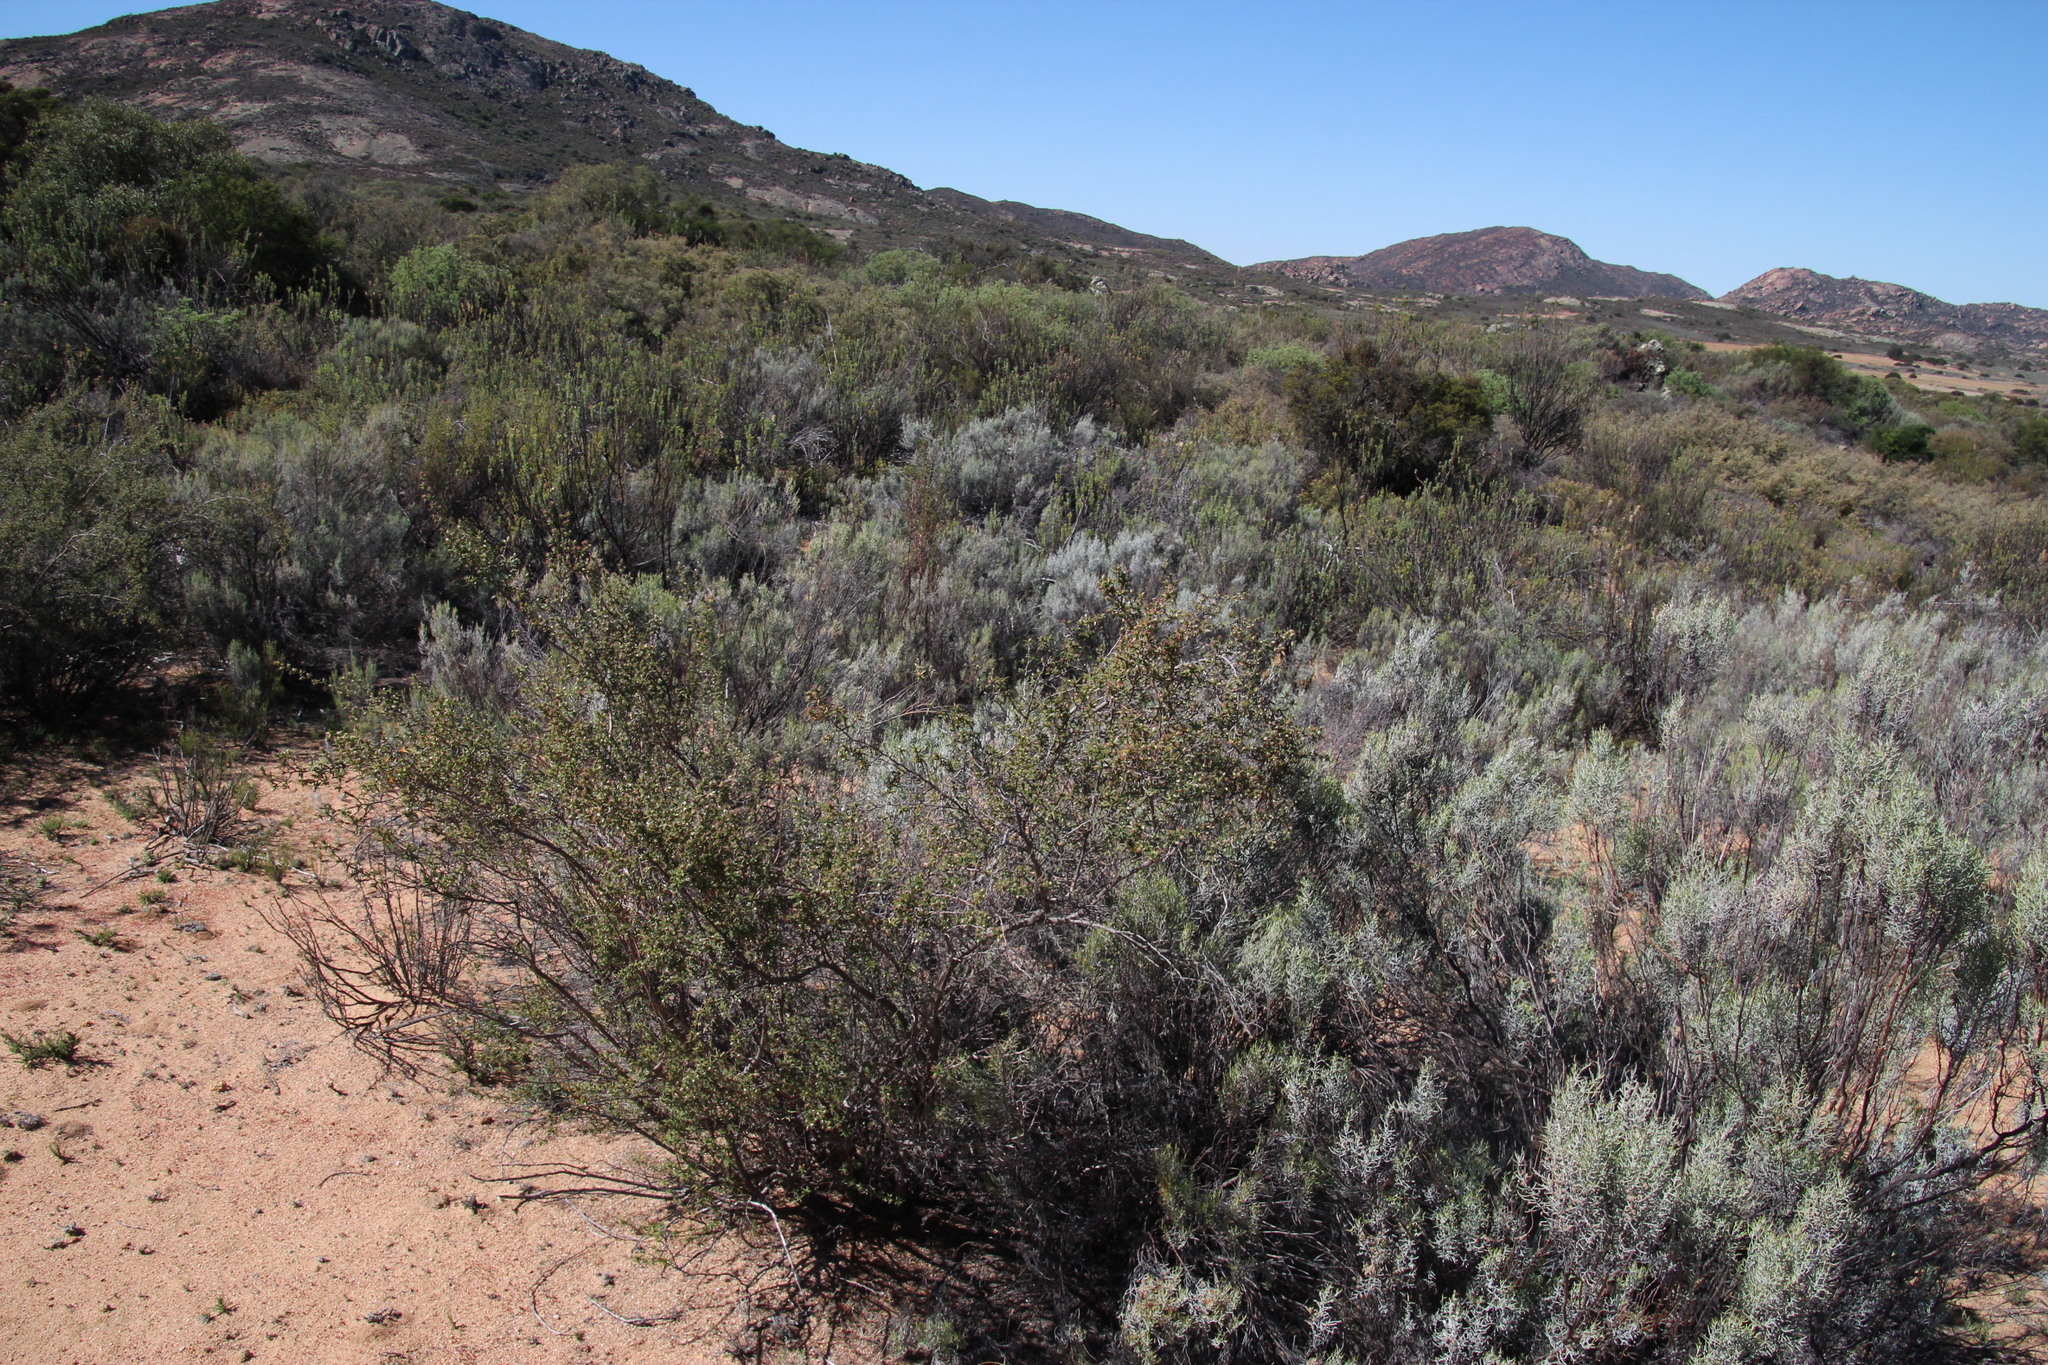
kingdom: Plantae
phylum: Tracheophyta
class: Magnoliopsida
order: Rosales
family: Rosaceae
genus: Cliffortia
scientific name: Cliffortia ruscifolia
